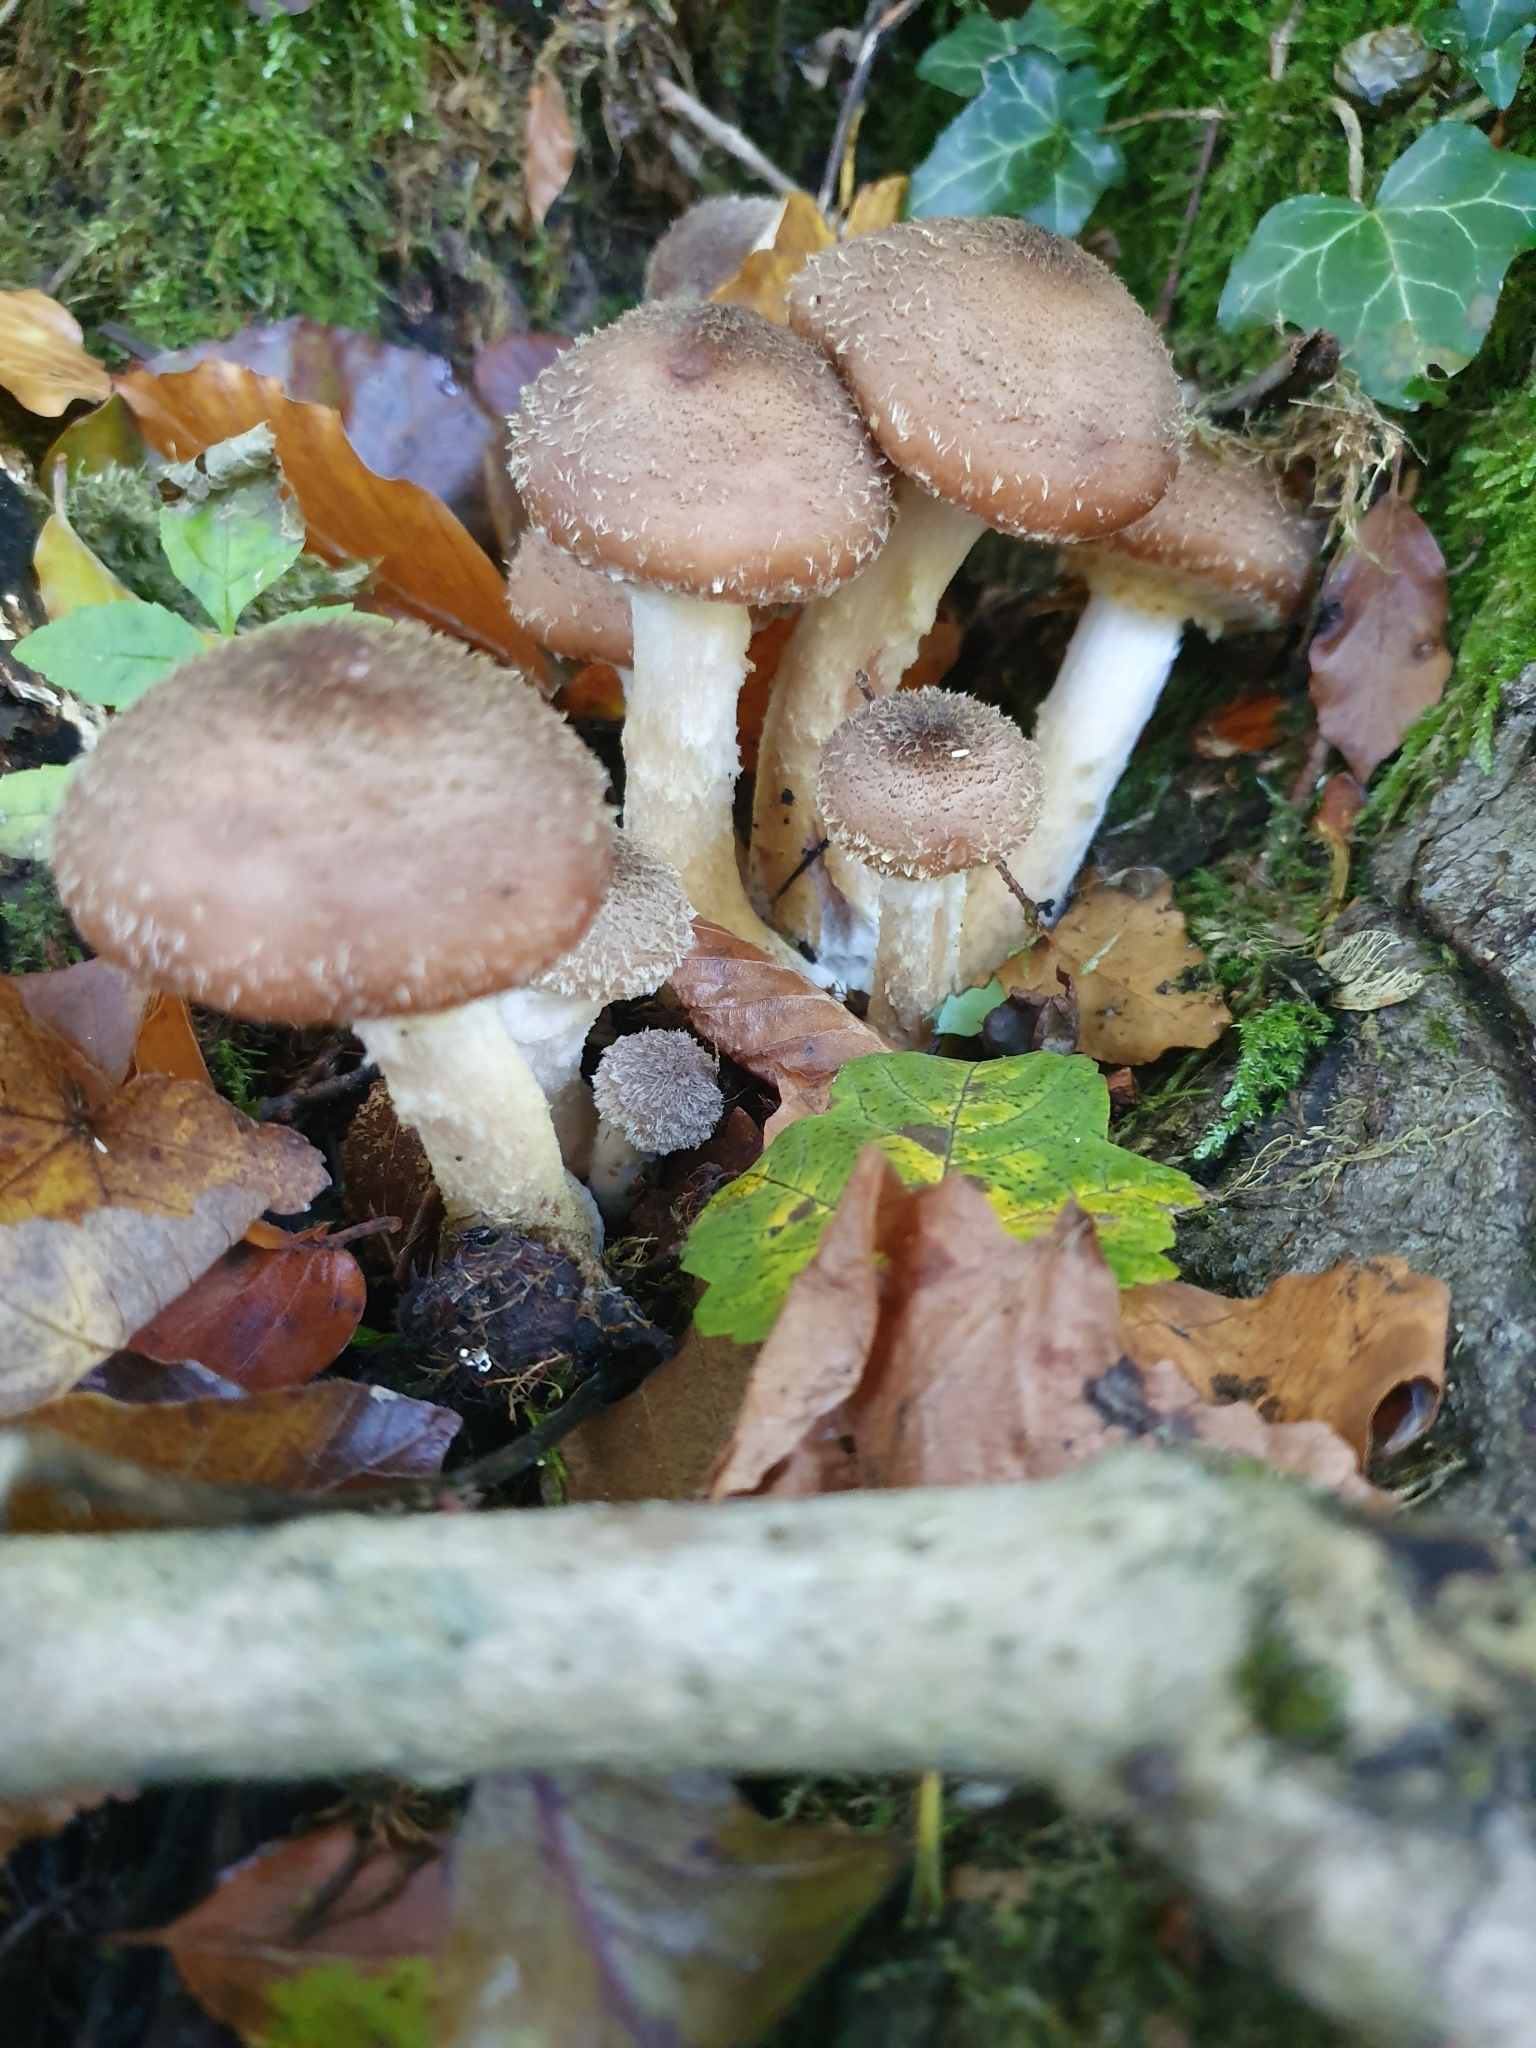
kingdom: Fungi
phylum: Basidiomycota
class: Agaricomycetes
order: Agaricales
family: Physalacriaceae
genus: Armillaria
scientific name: Armillaria gallica
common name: Bulbous honey fungus
